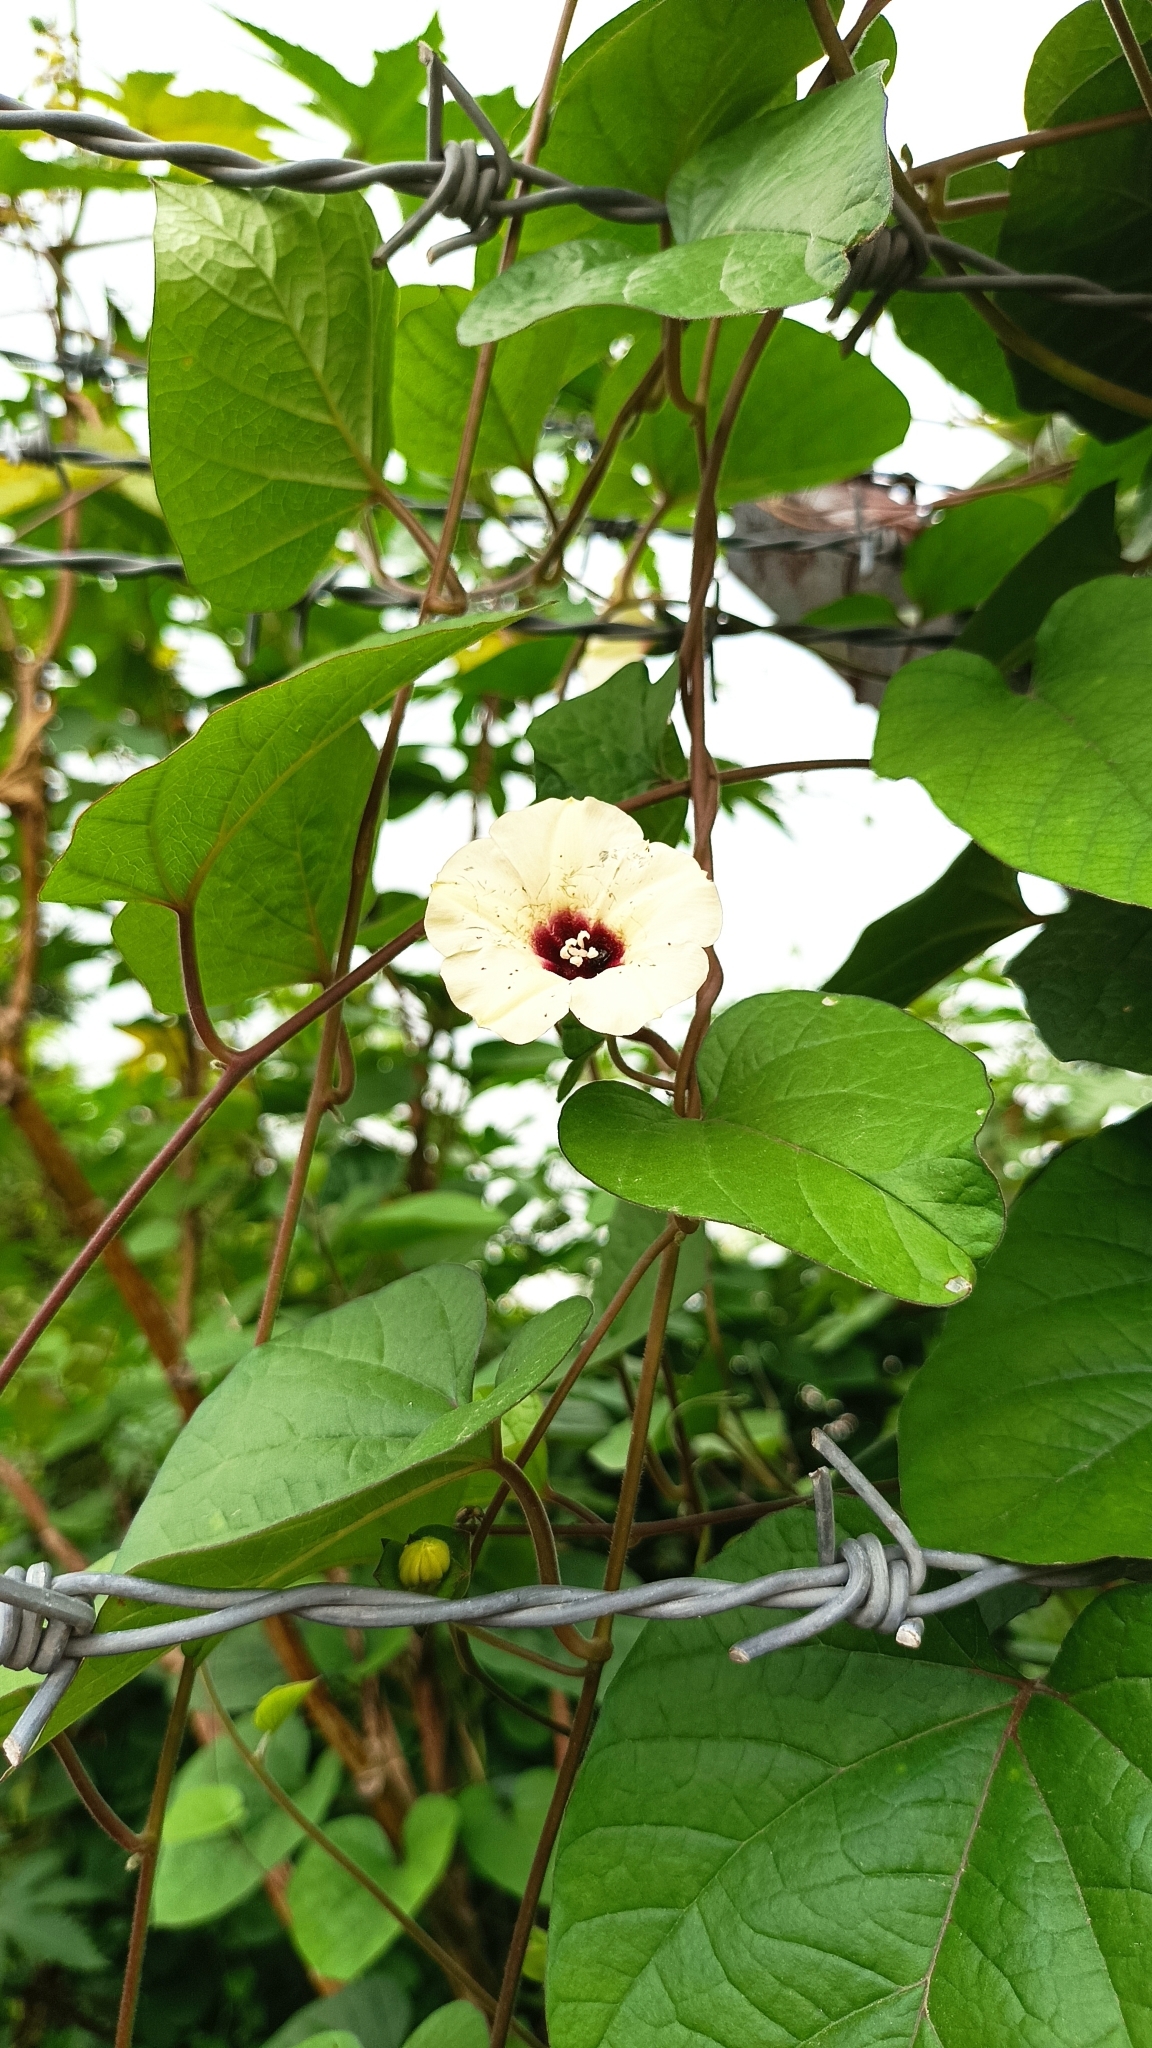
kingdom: Plantae
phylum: Tracheophyta
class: Magnoliopsida
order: Solanales
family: Convolvulaceae
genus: Hewittia
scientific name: Hewittia malabarica
